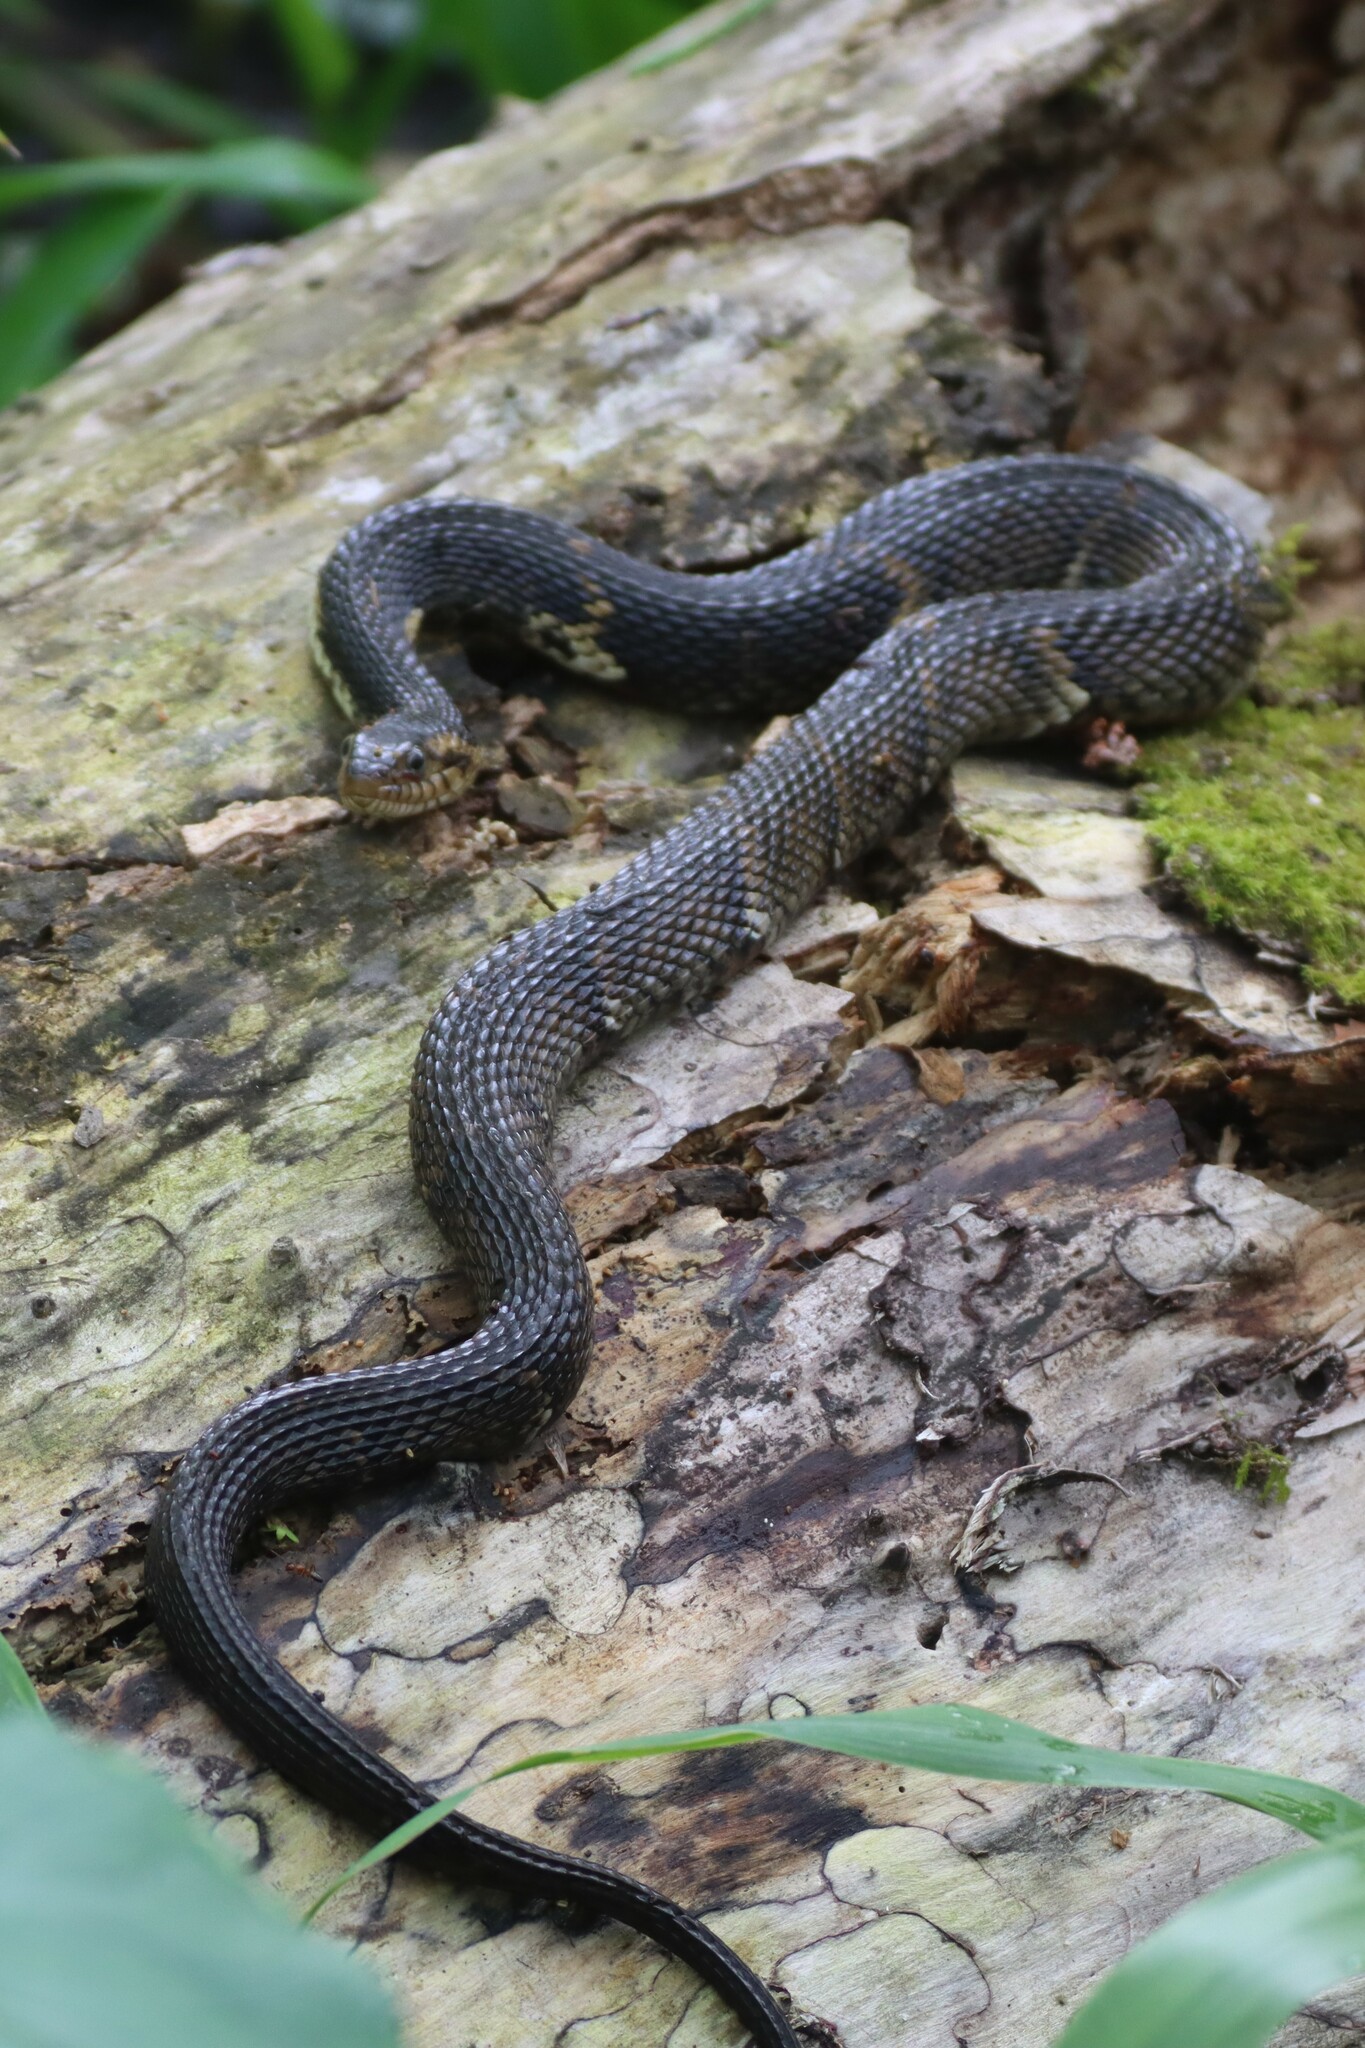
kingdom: Animalia
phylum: Chordata
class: Squamata
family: Colubridae
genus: Nerodia
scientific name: Nerodia fasciata
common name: Southern water snake
